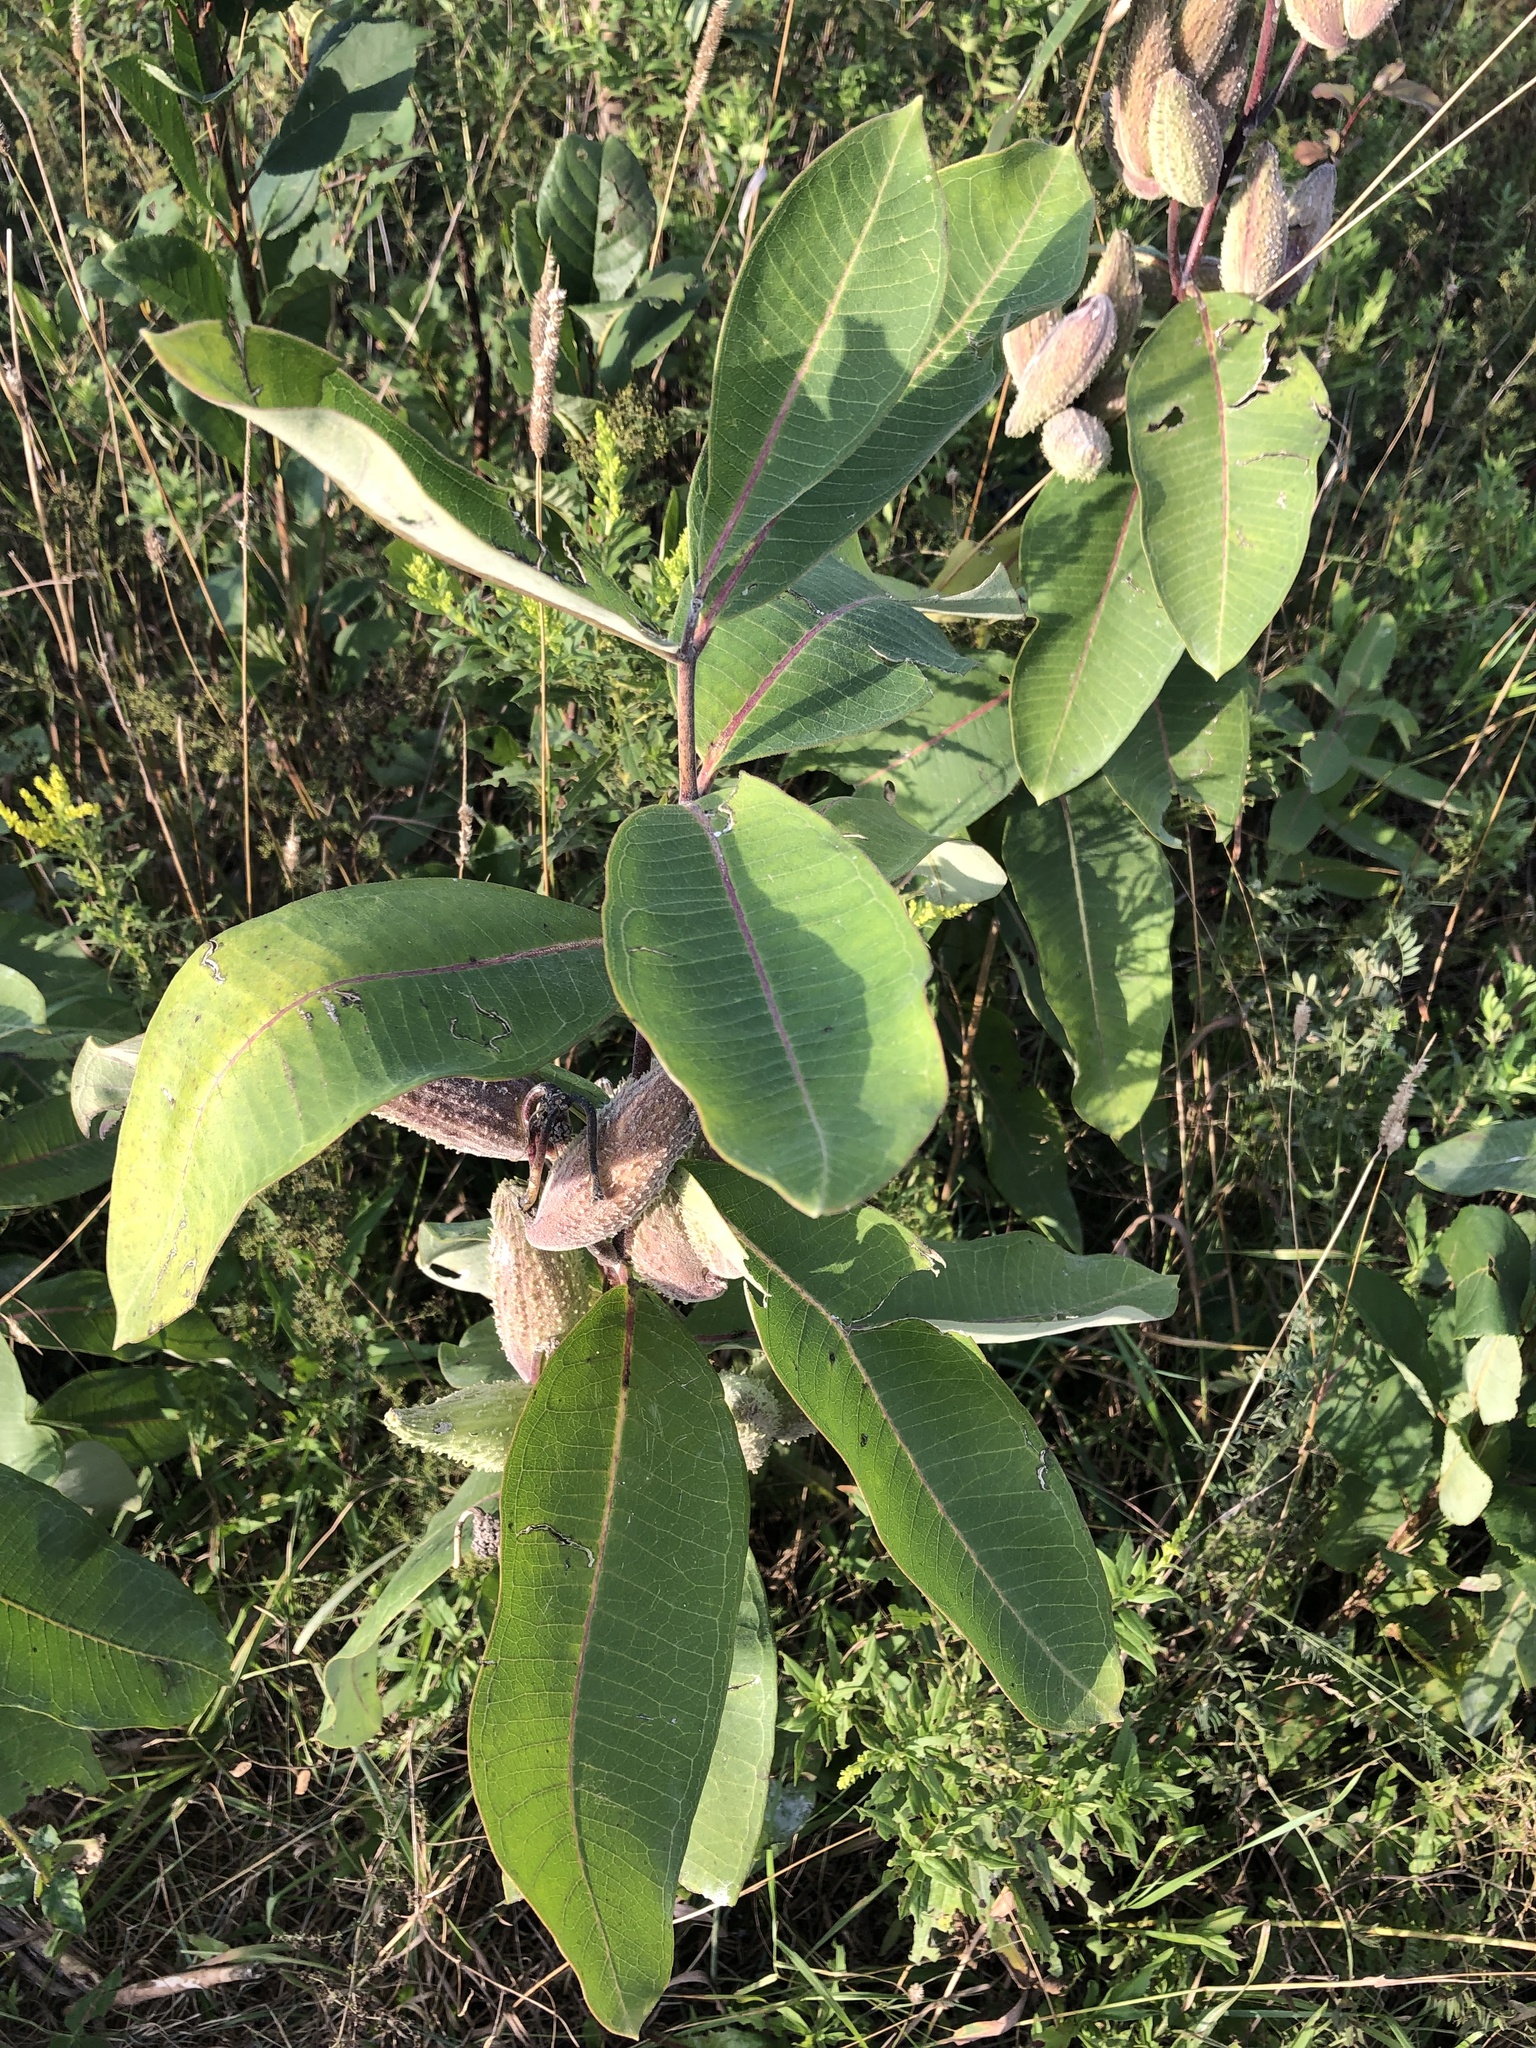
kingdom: Plantae
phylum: Tracheophyta
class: Magnoliopsida
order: Gentianales
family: Apocynaceae
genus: Asclepias
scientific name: Asclepias syriaca
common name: Common milkweed
